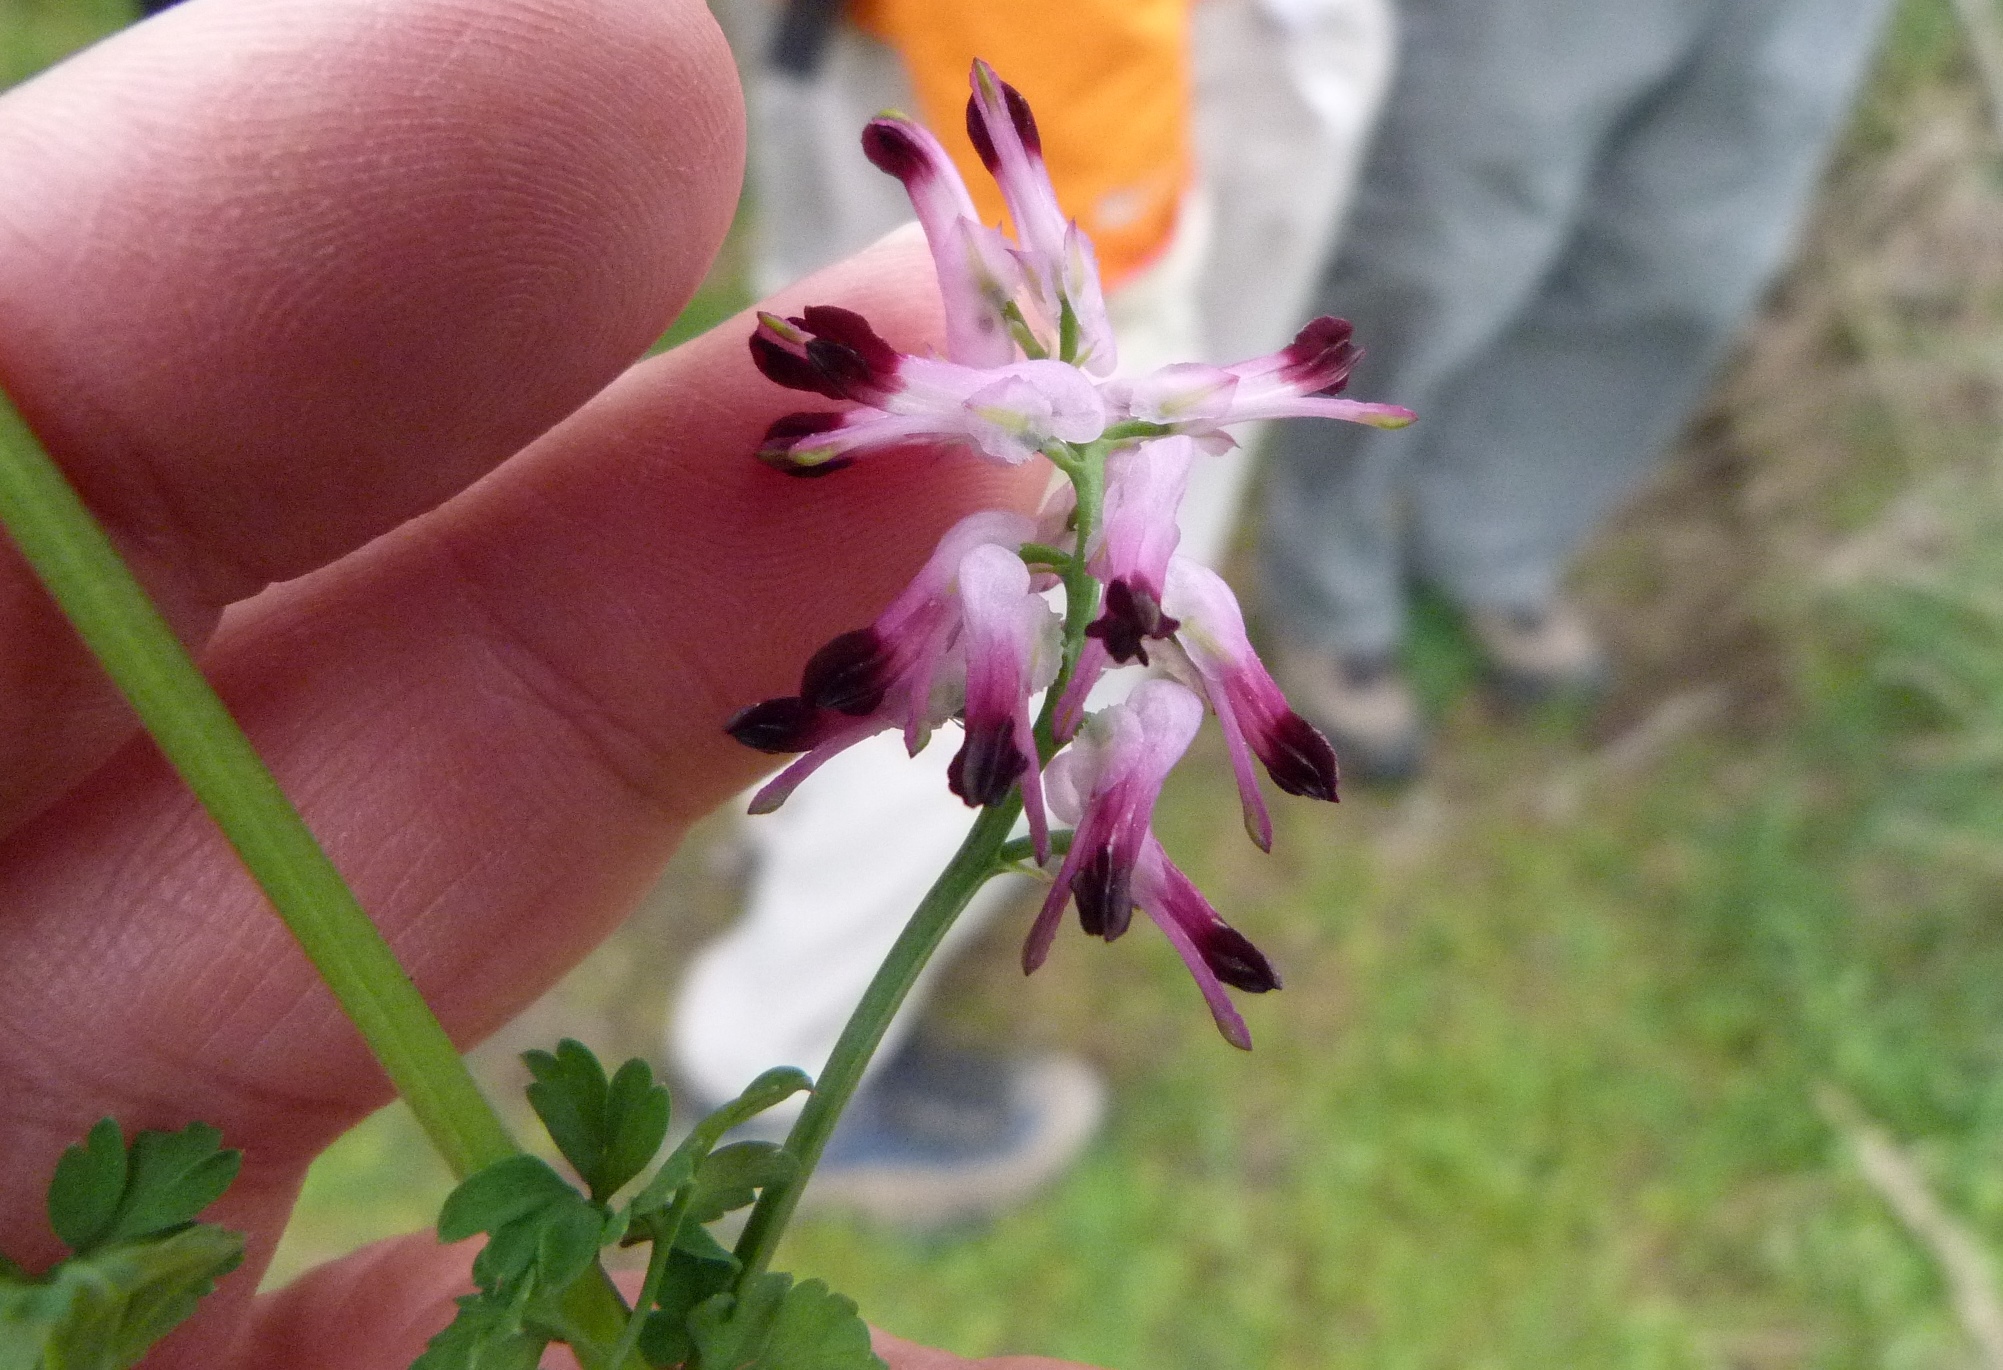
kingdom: Plantae
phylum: Tracheophyta
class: Magnoliopsida
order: Ranunculales
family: Papaveraceae
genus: Fumaria
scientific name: Fumaria muralis
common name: Common ramping-fumitory
